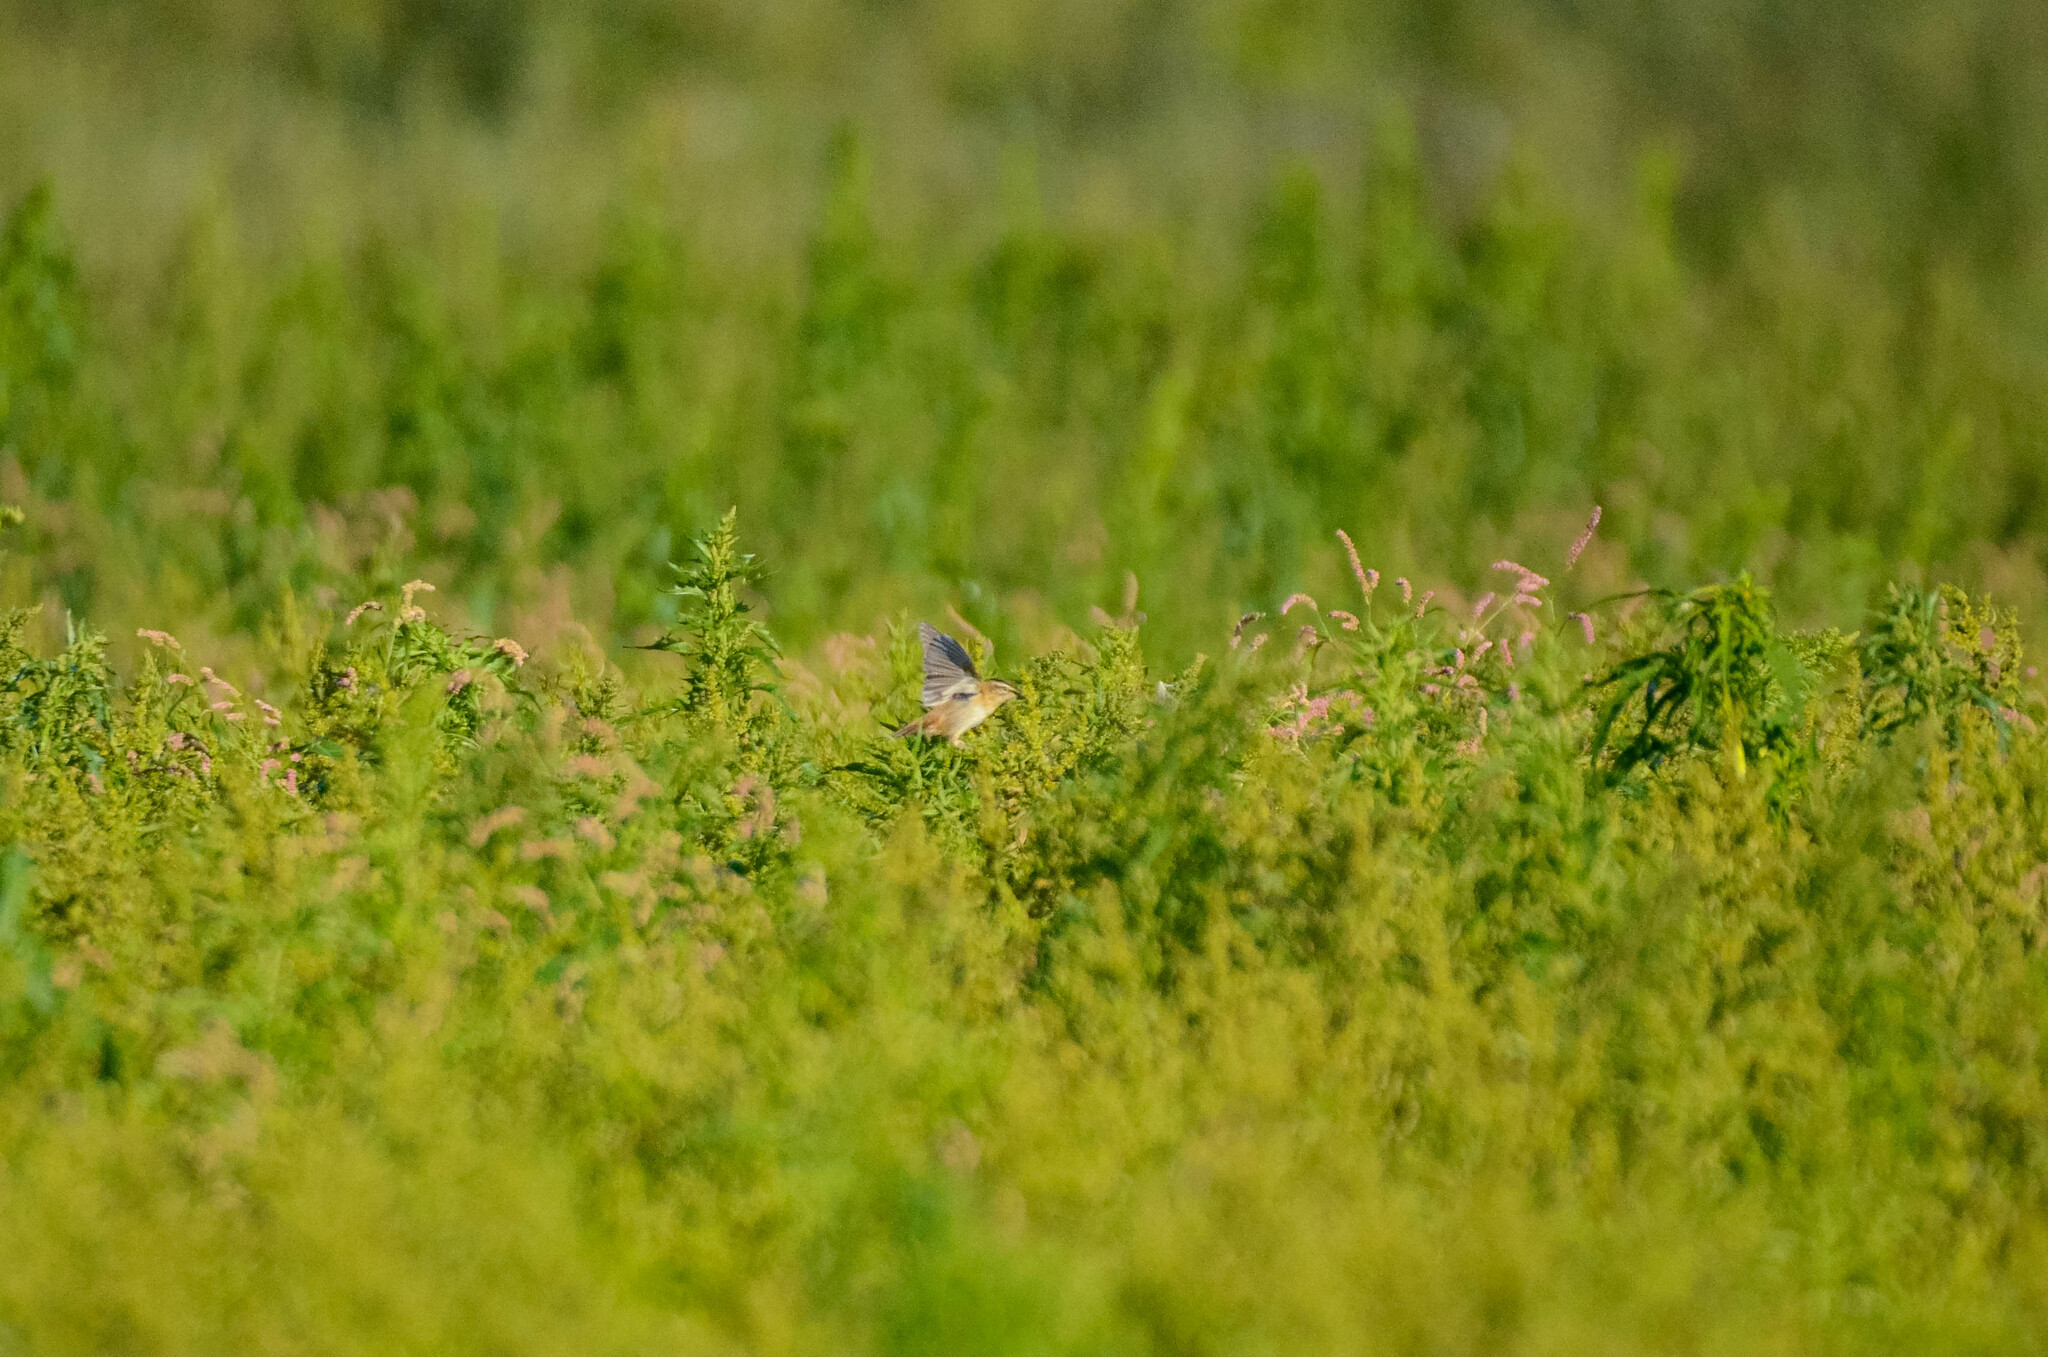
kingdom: Animalia
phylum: Chordata
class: Aves
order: Passeriformes
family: Acrocephalidae
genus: Acrocephalus
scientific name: Acrocephalus schoenobaenus
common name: Sedge warbler
